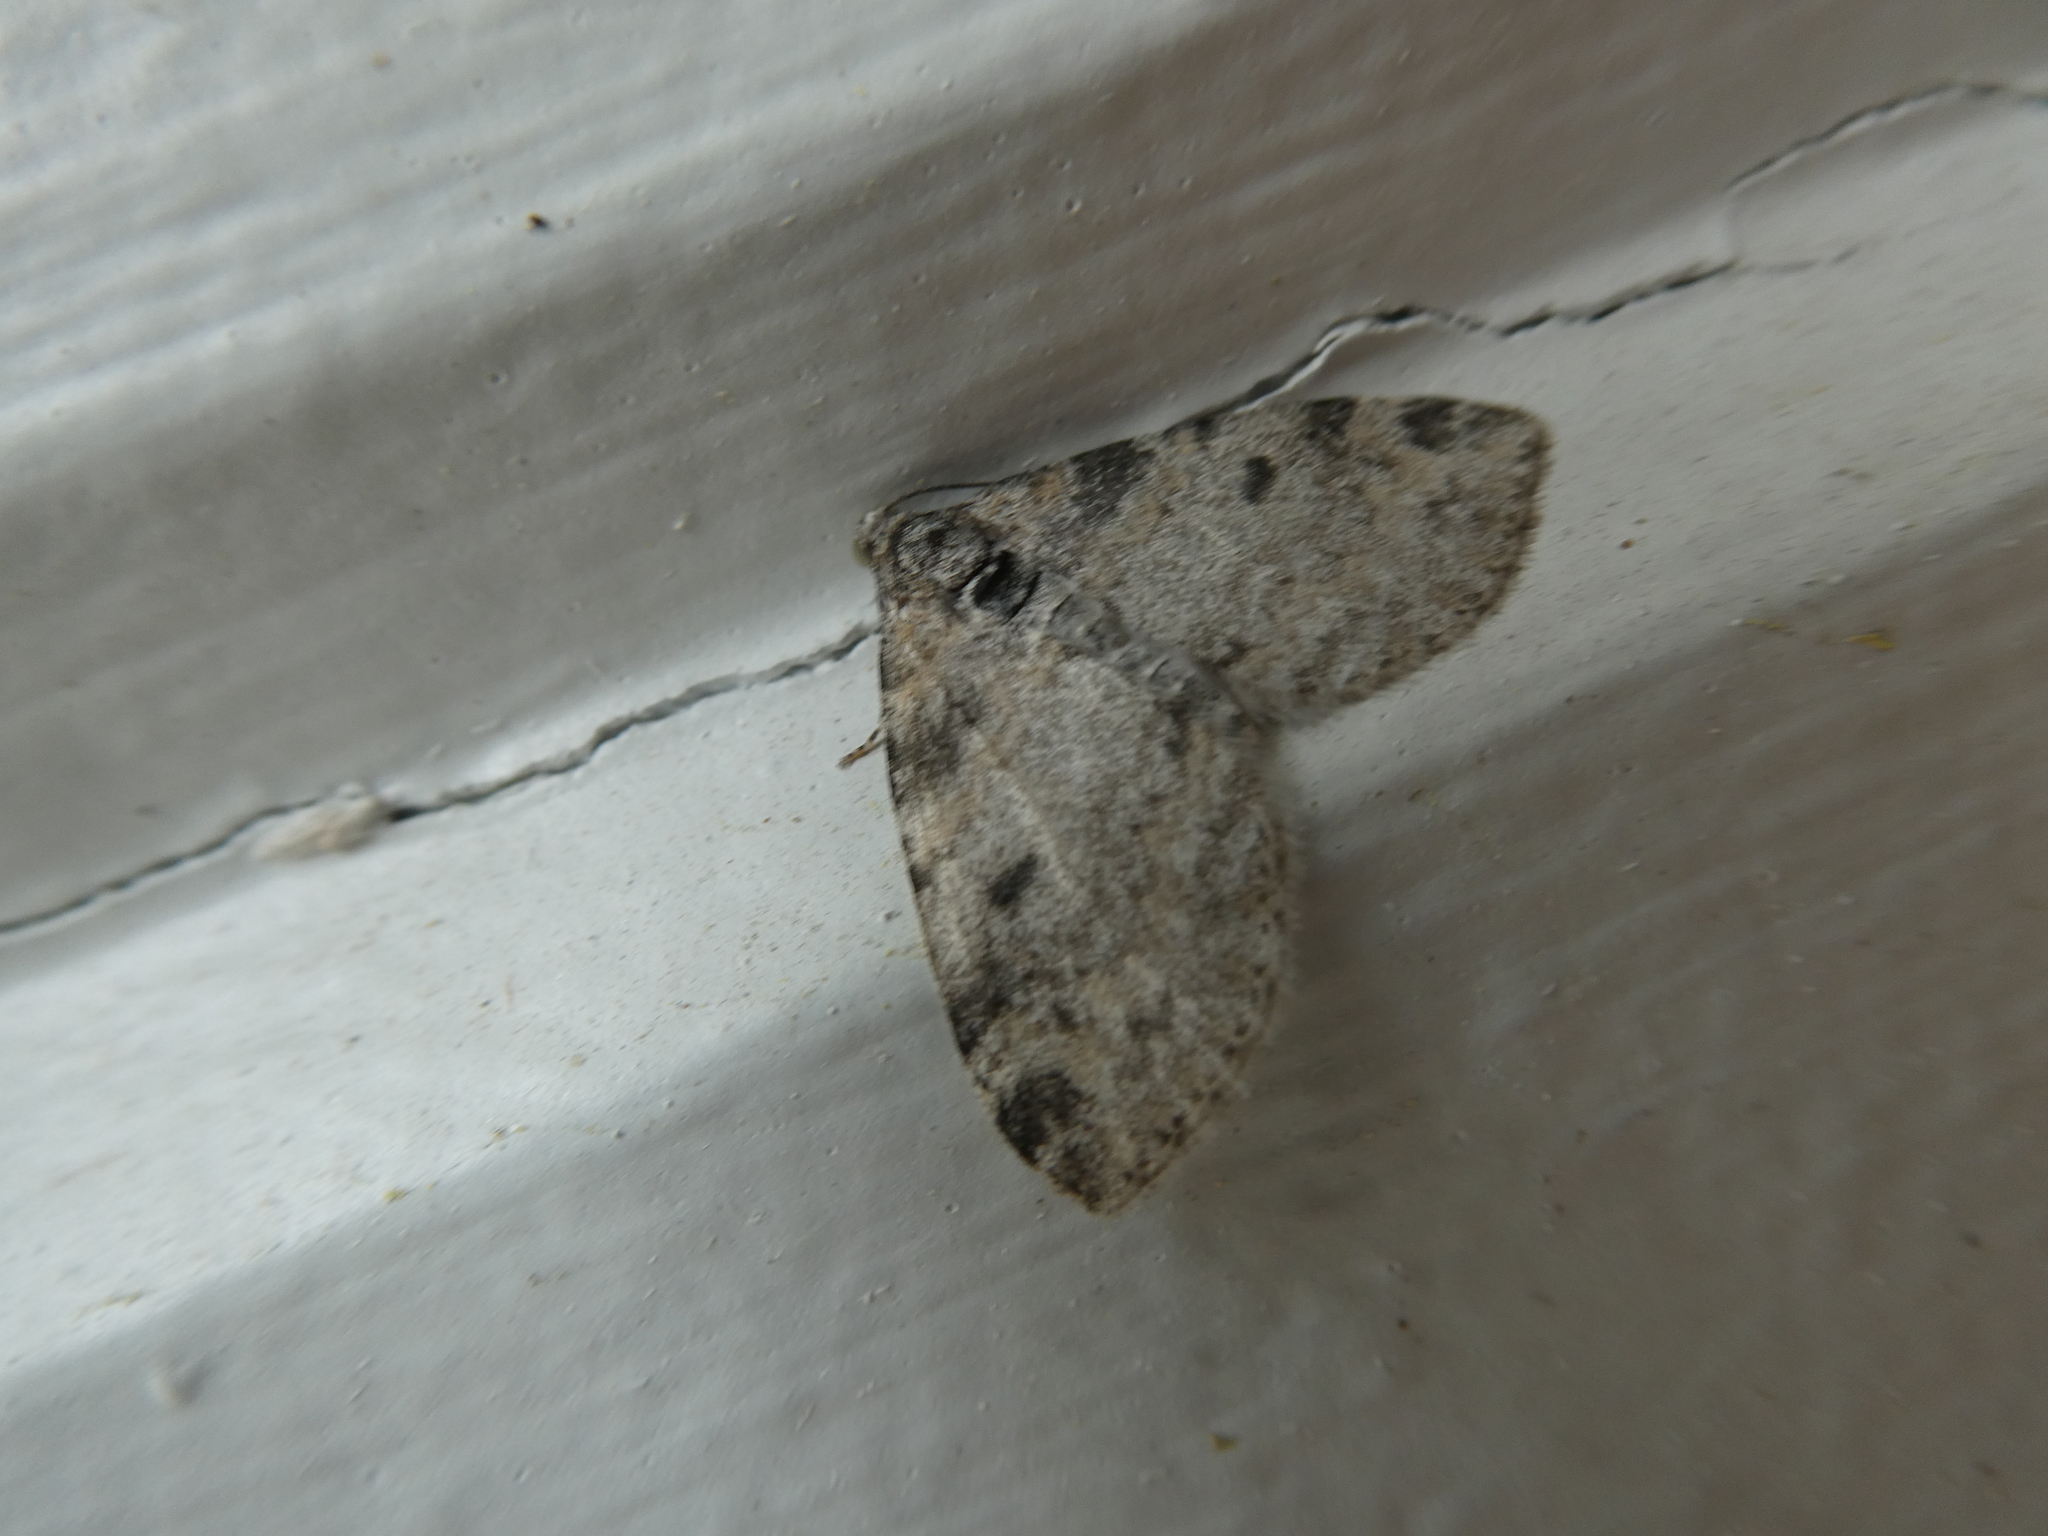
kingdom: Animalia
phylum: Arthropoda
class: Insecta
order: Lepidoptera
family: Geometridae
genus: Lobophora
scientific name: Lobophora nivigerata
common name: Powdered bigwing
